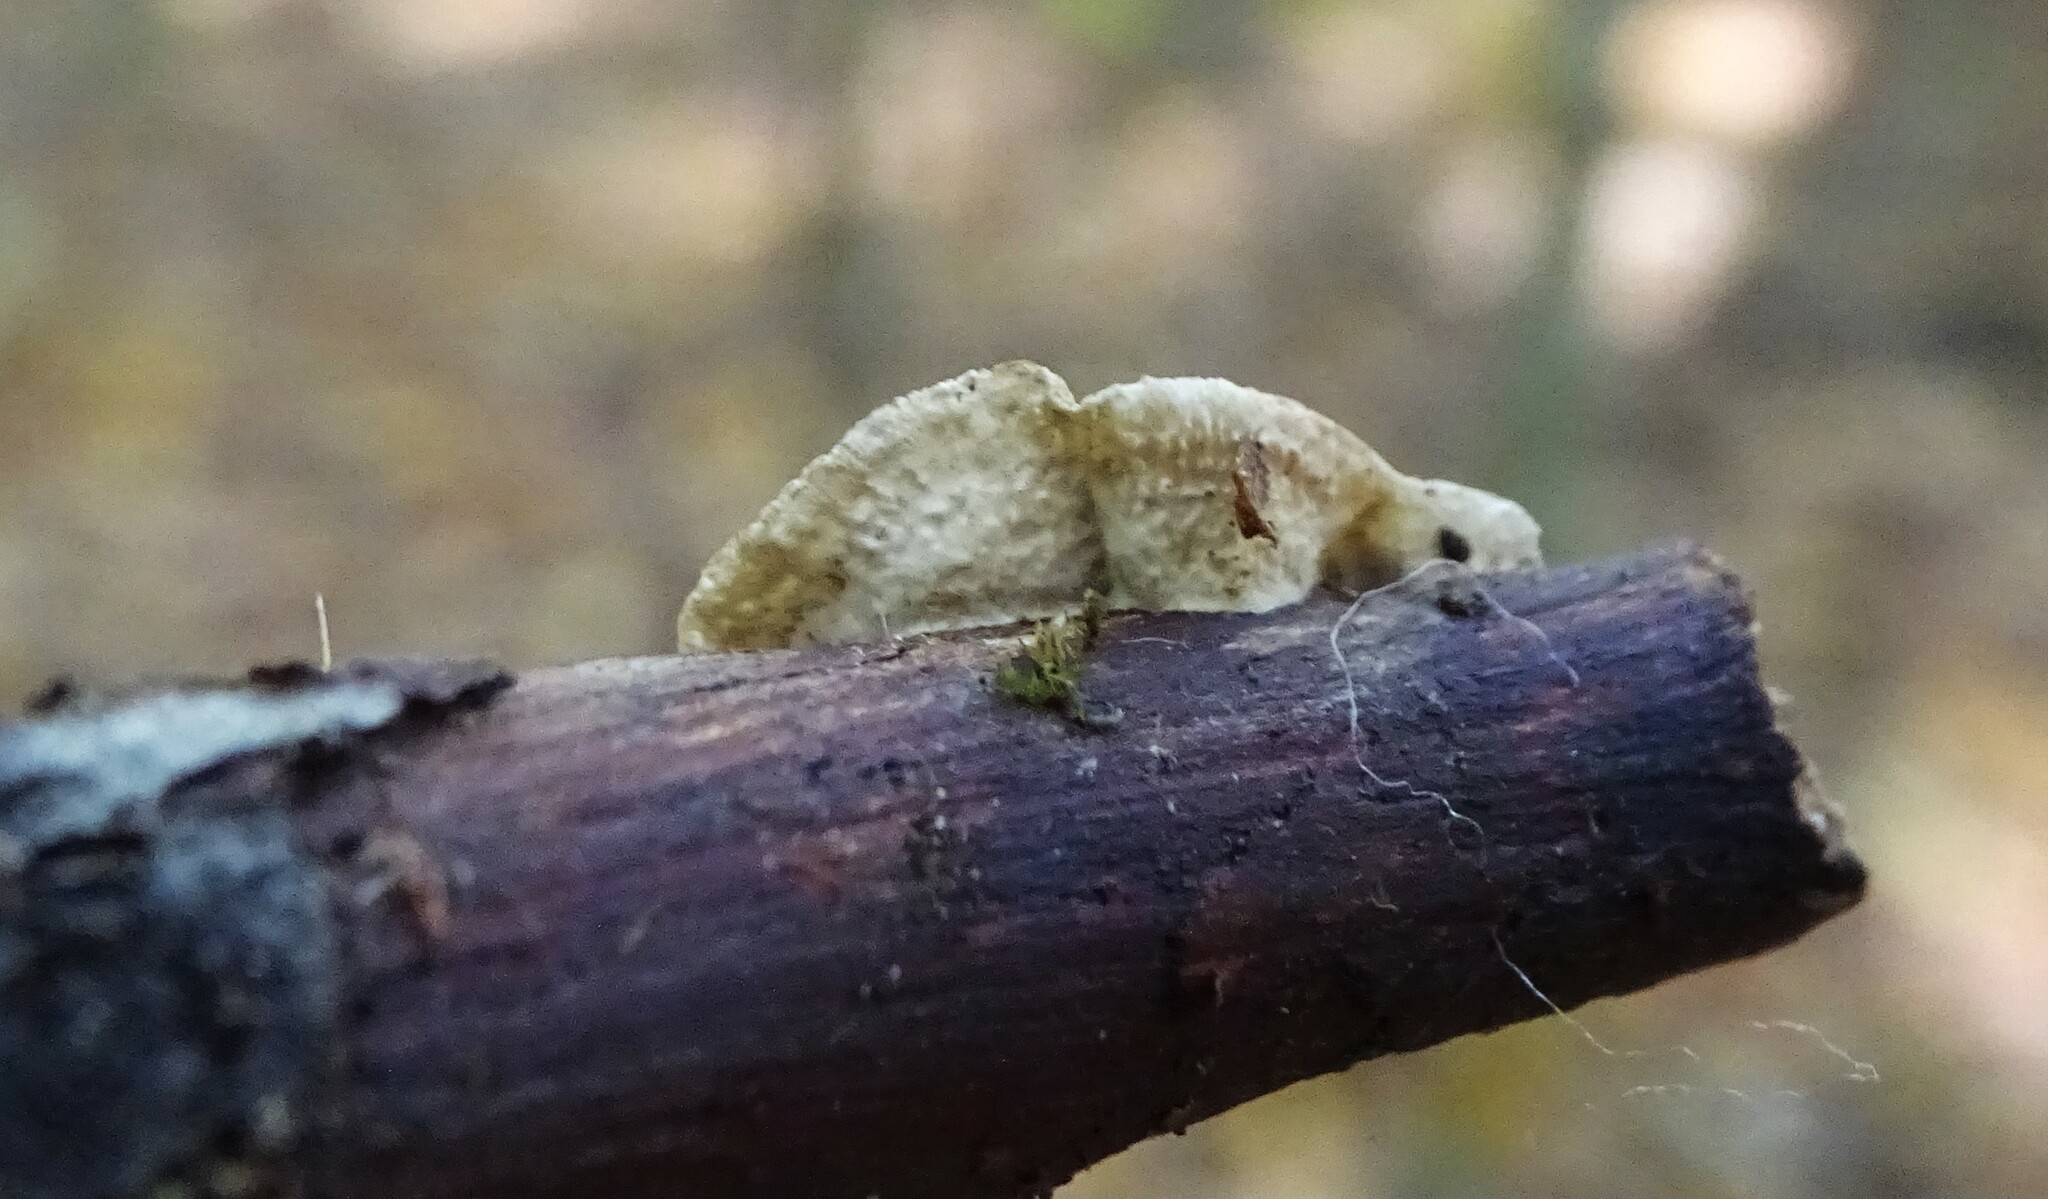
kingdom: Fungi
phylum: Basidiomycota
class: Agaricomycetes
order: Polyporales
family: Polyporaceae
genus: Poronidulus
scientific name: Poronidulus conchifer
